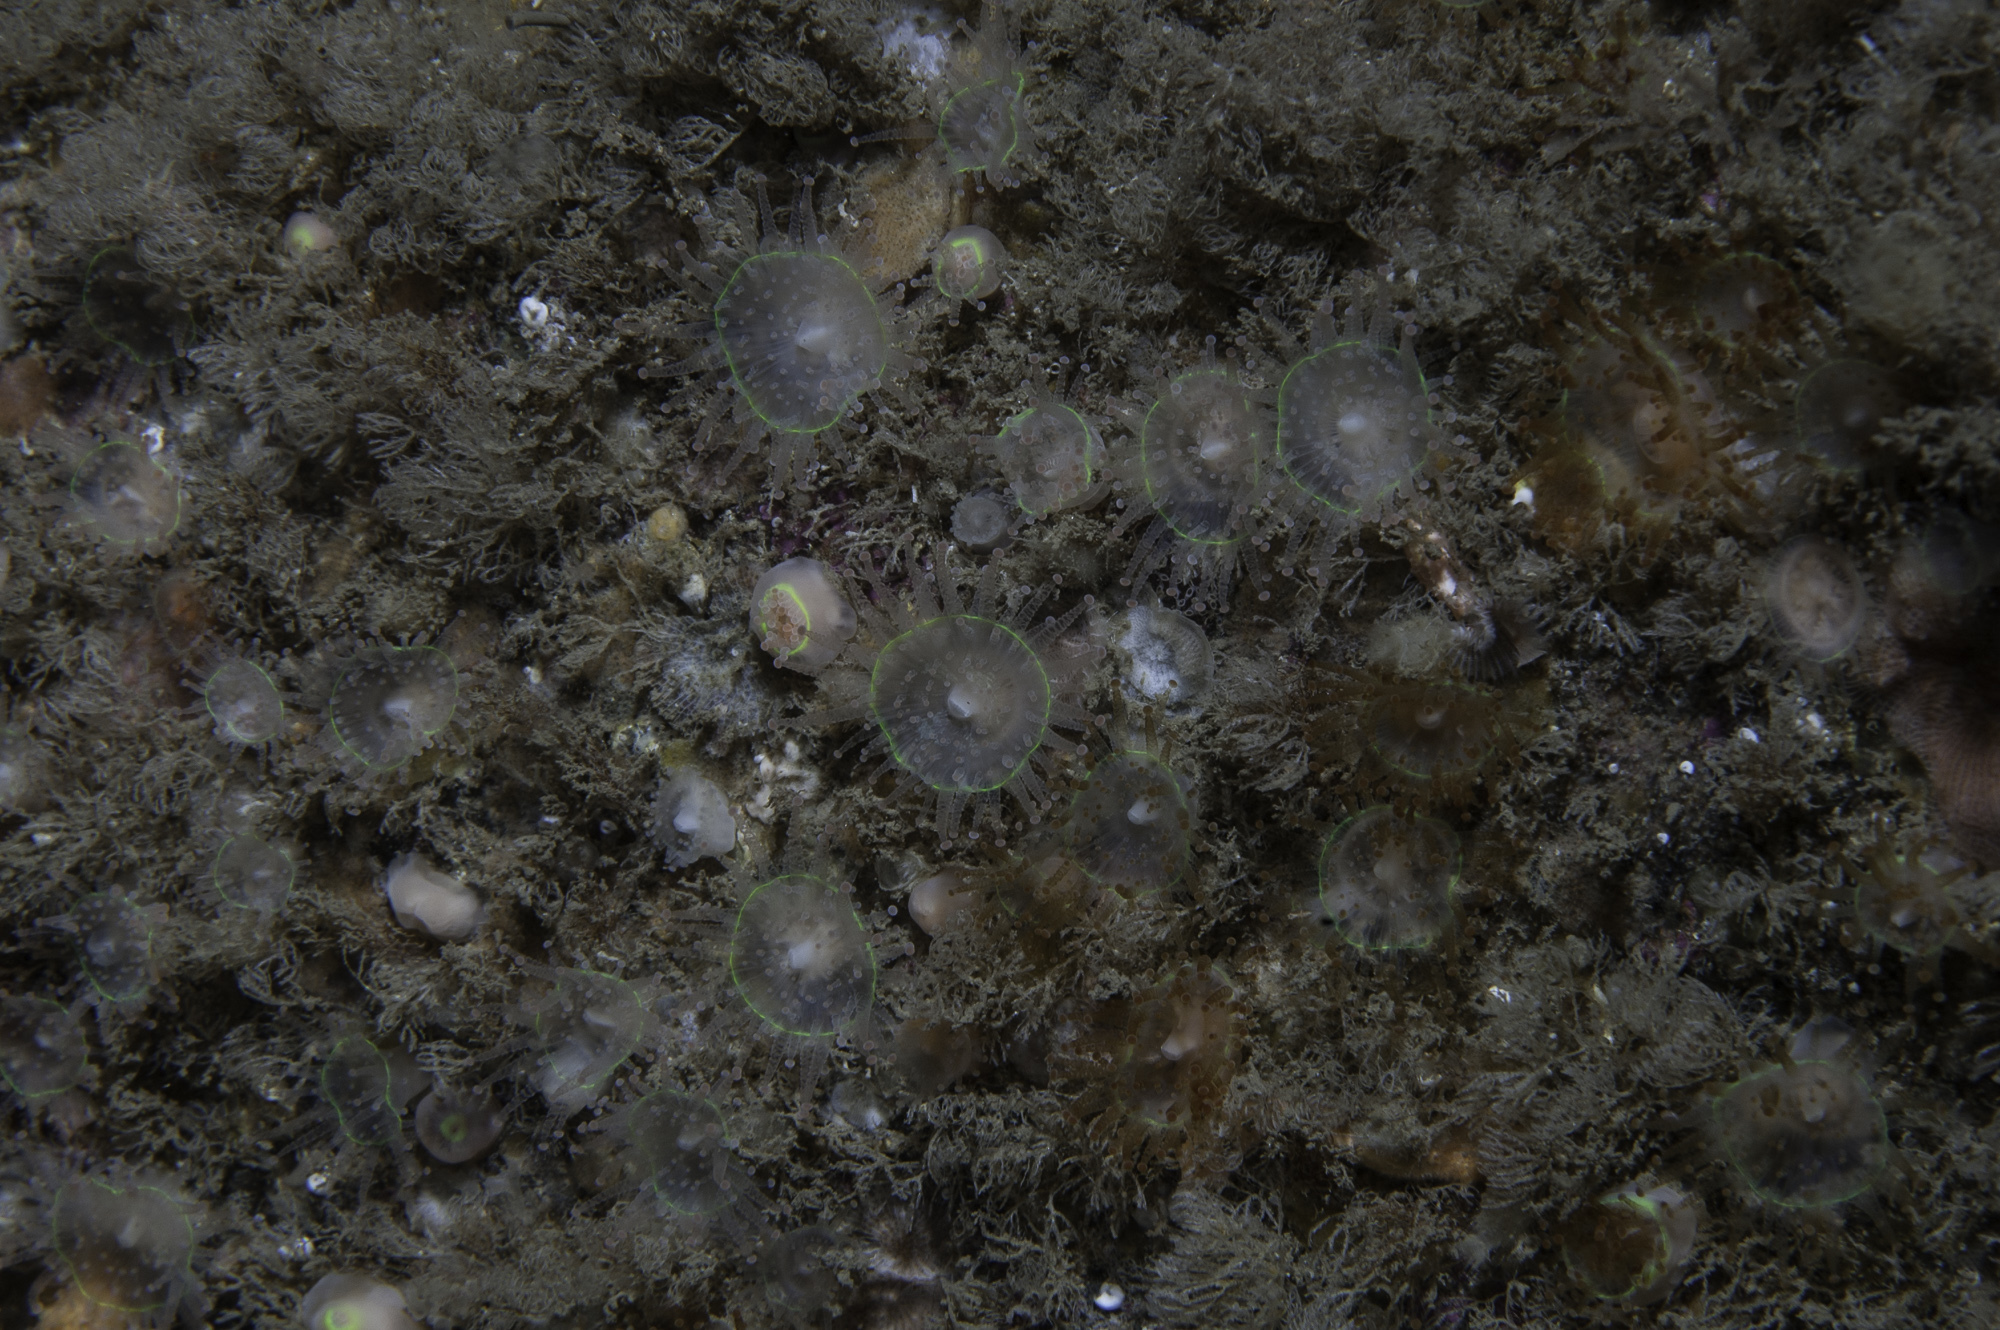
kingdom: Animalia
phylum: Cnidaria
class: Anthozoa
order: Corallimorpharia
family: Corallimorphidae
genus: Corynactis
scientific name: Corynactis viridis
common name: Jewel anemone
